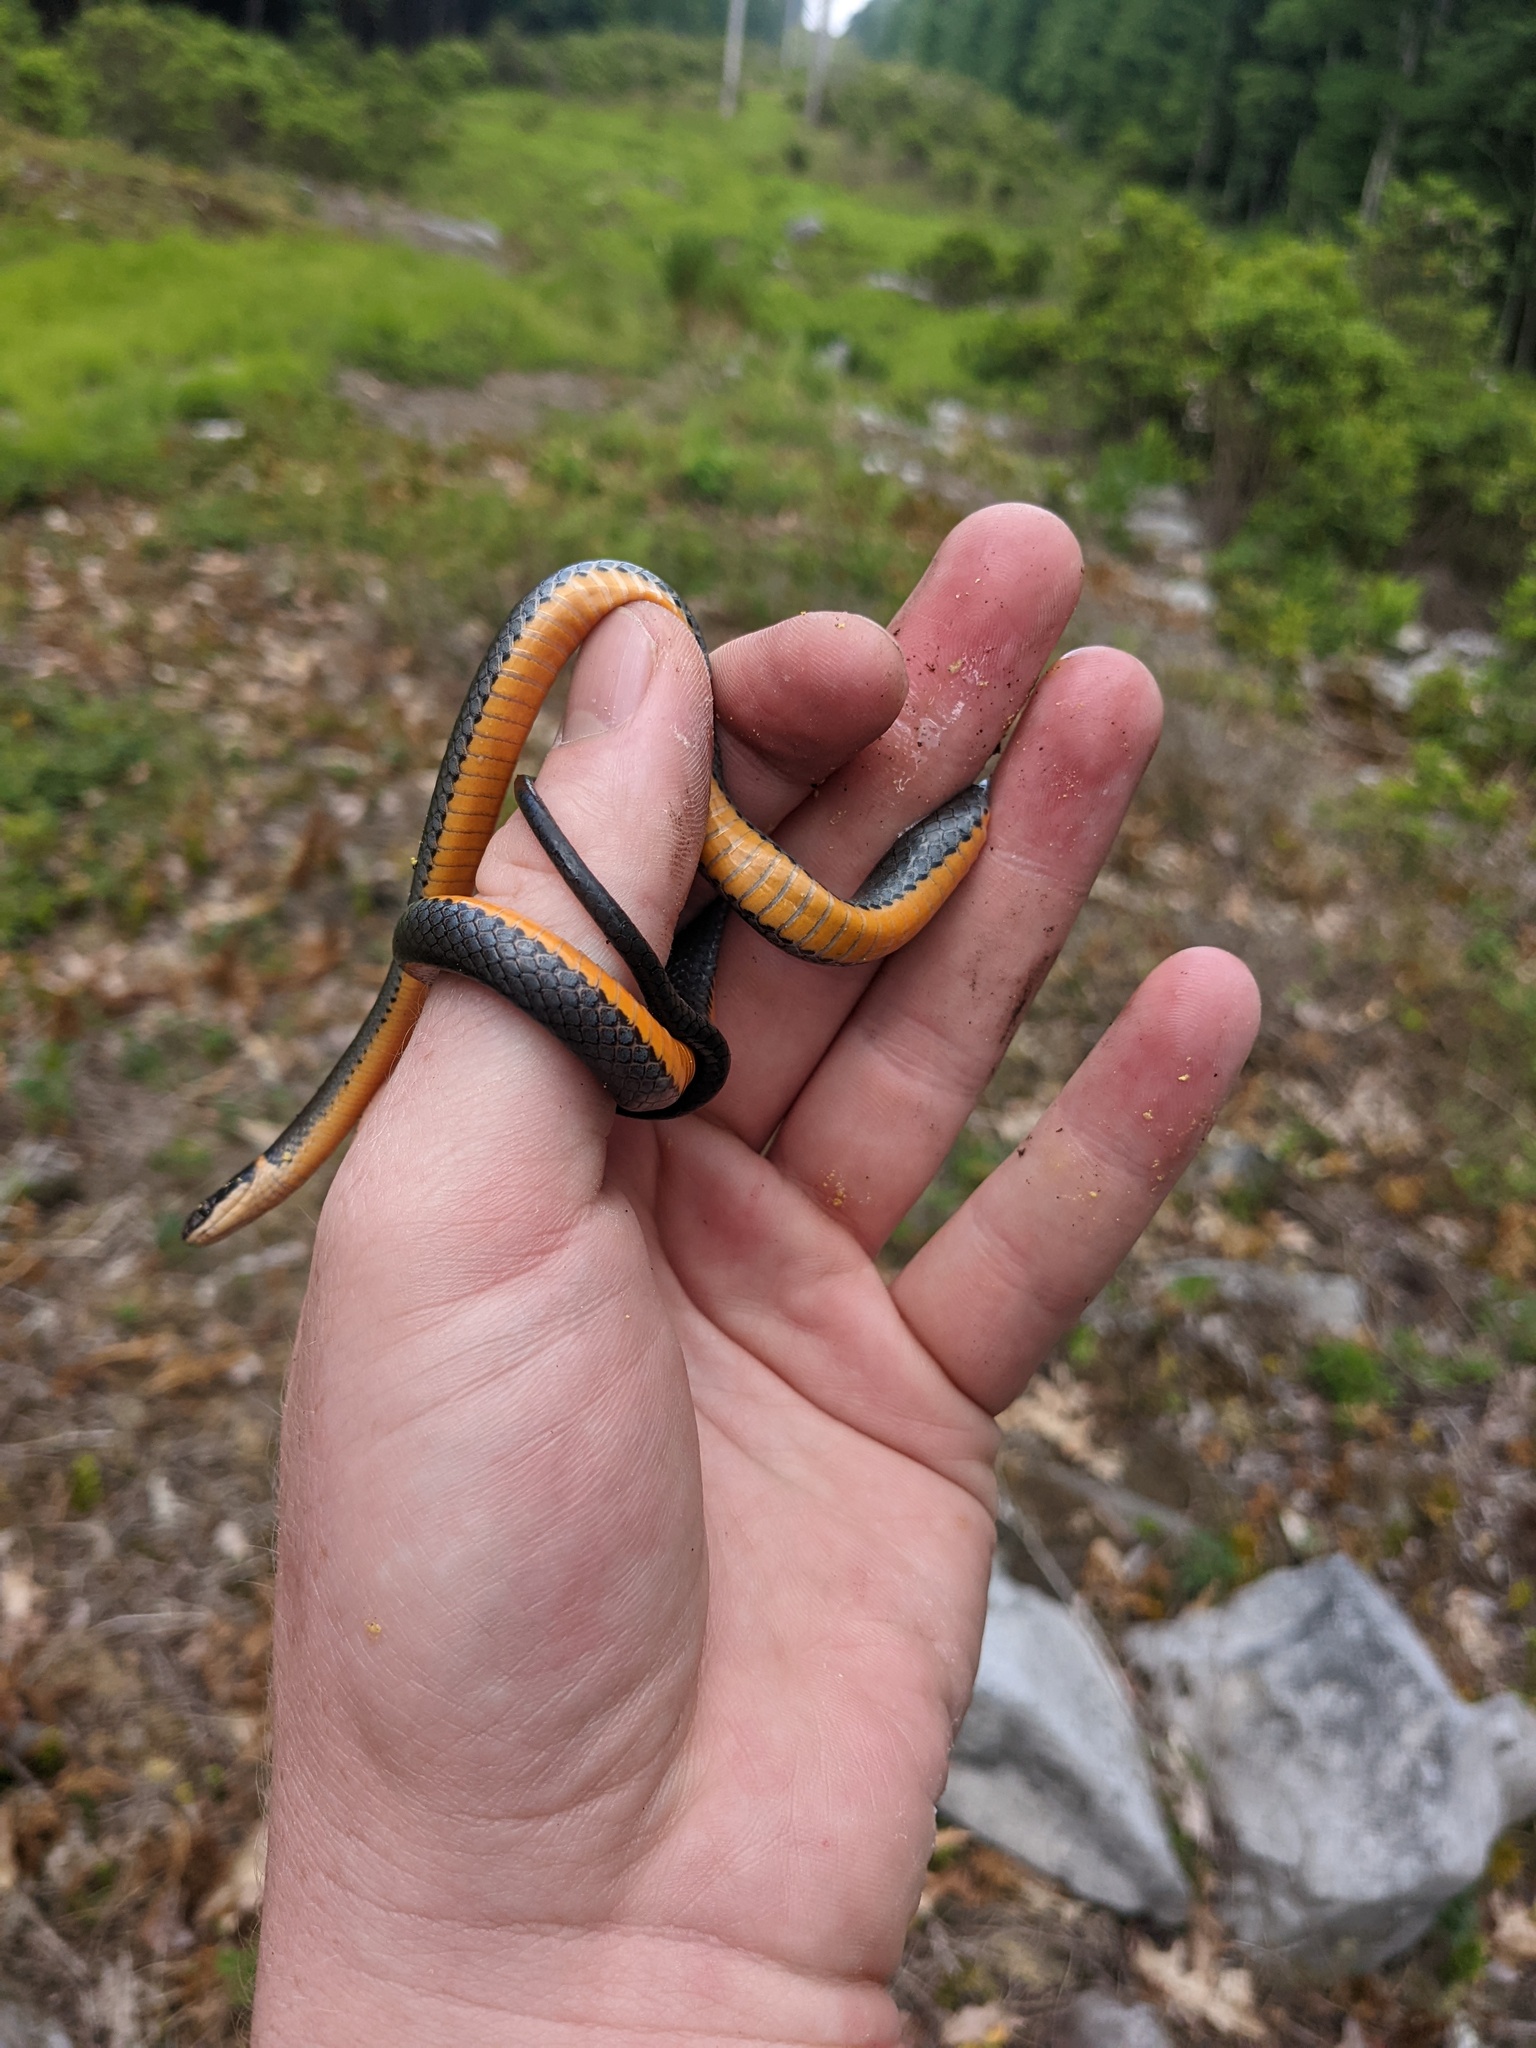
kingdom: Animalia
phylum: Chordata
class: Squamata
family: Colubridae
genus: Diadophis
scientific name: Diadophis punctatus
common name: Ringneck snake
